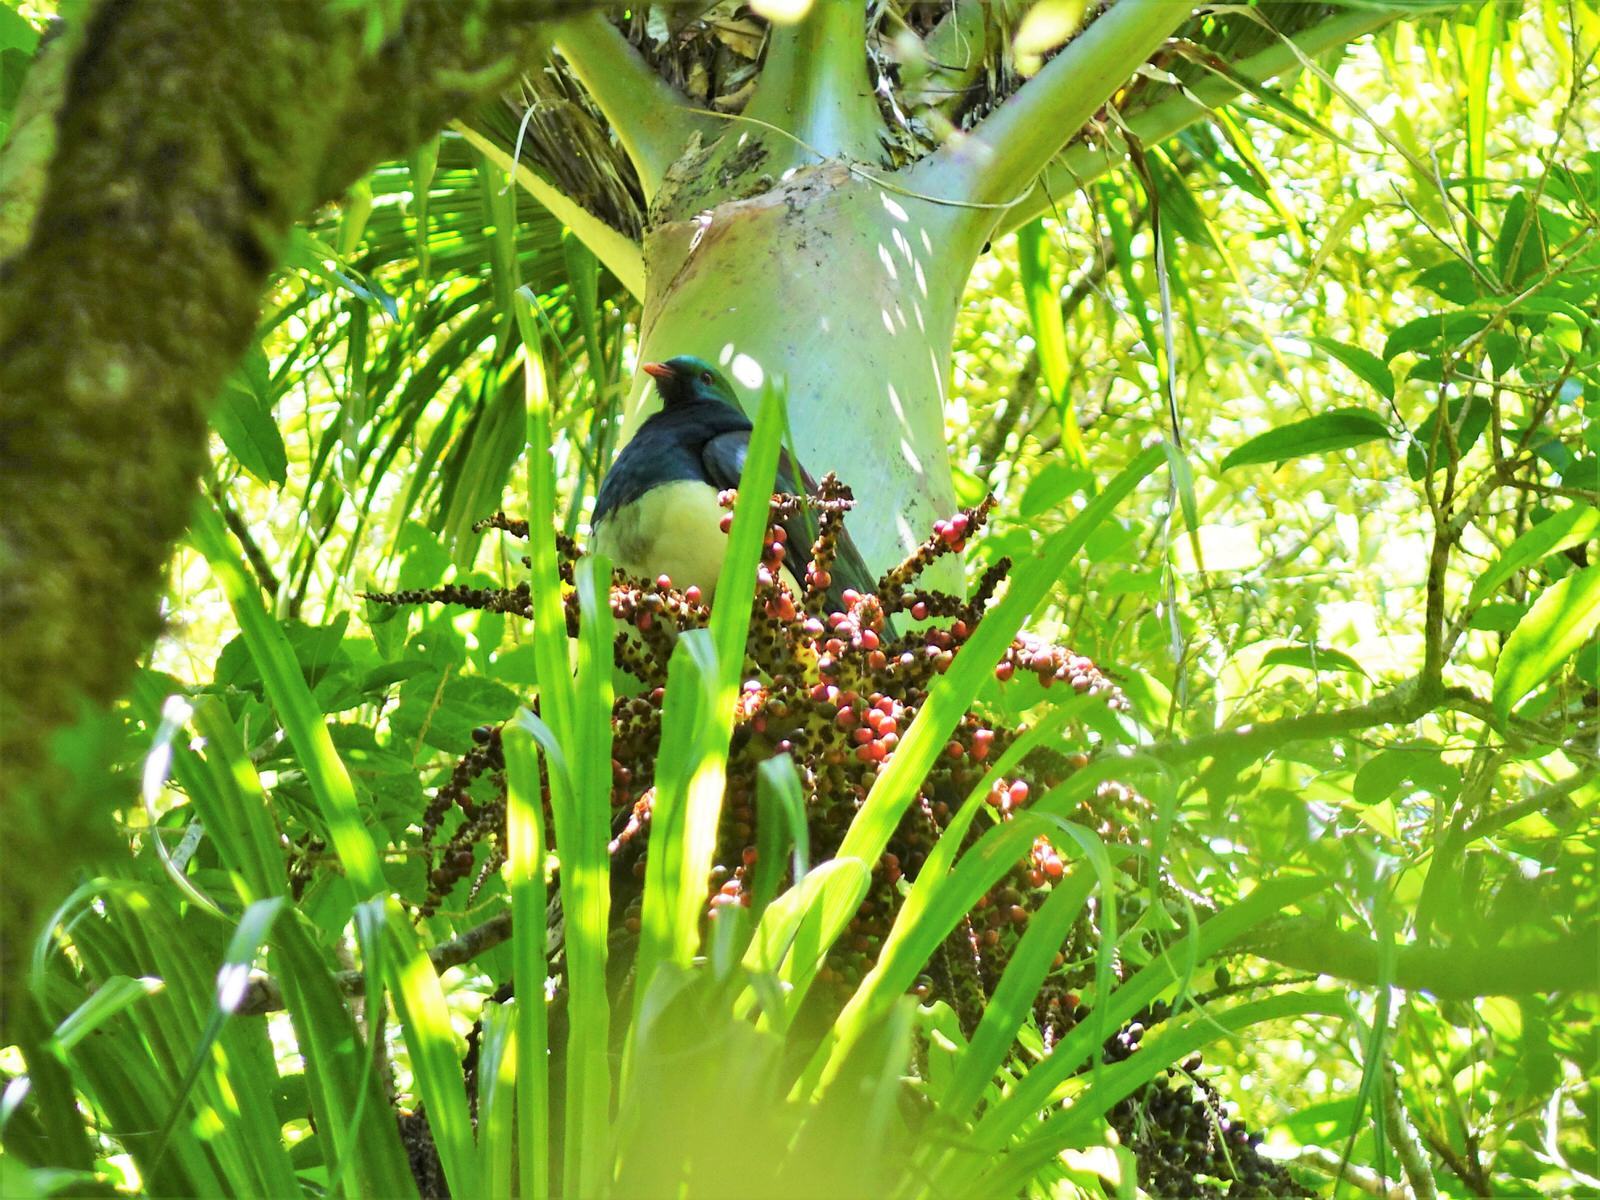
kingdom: Animalia
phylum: Chordata
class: Aves
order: Columbiformes
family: Columbidae
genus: Hemiphaga
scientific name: Hemiphaga novaeseelandiae
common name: New zealand pigeon
